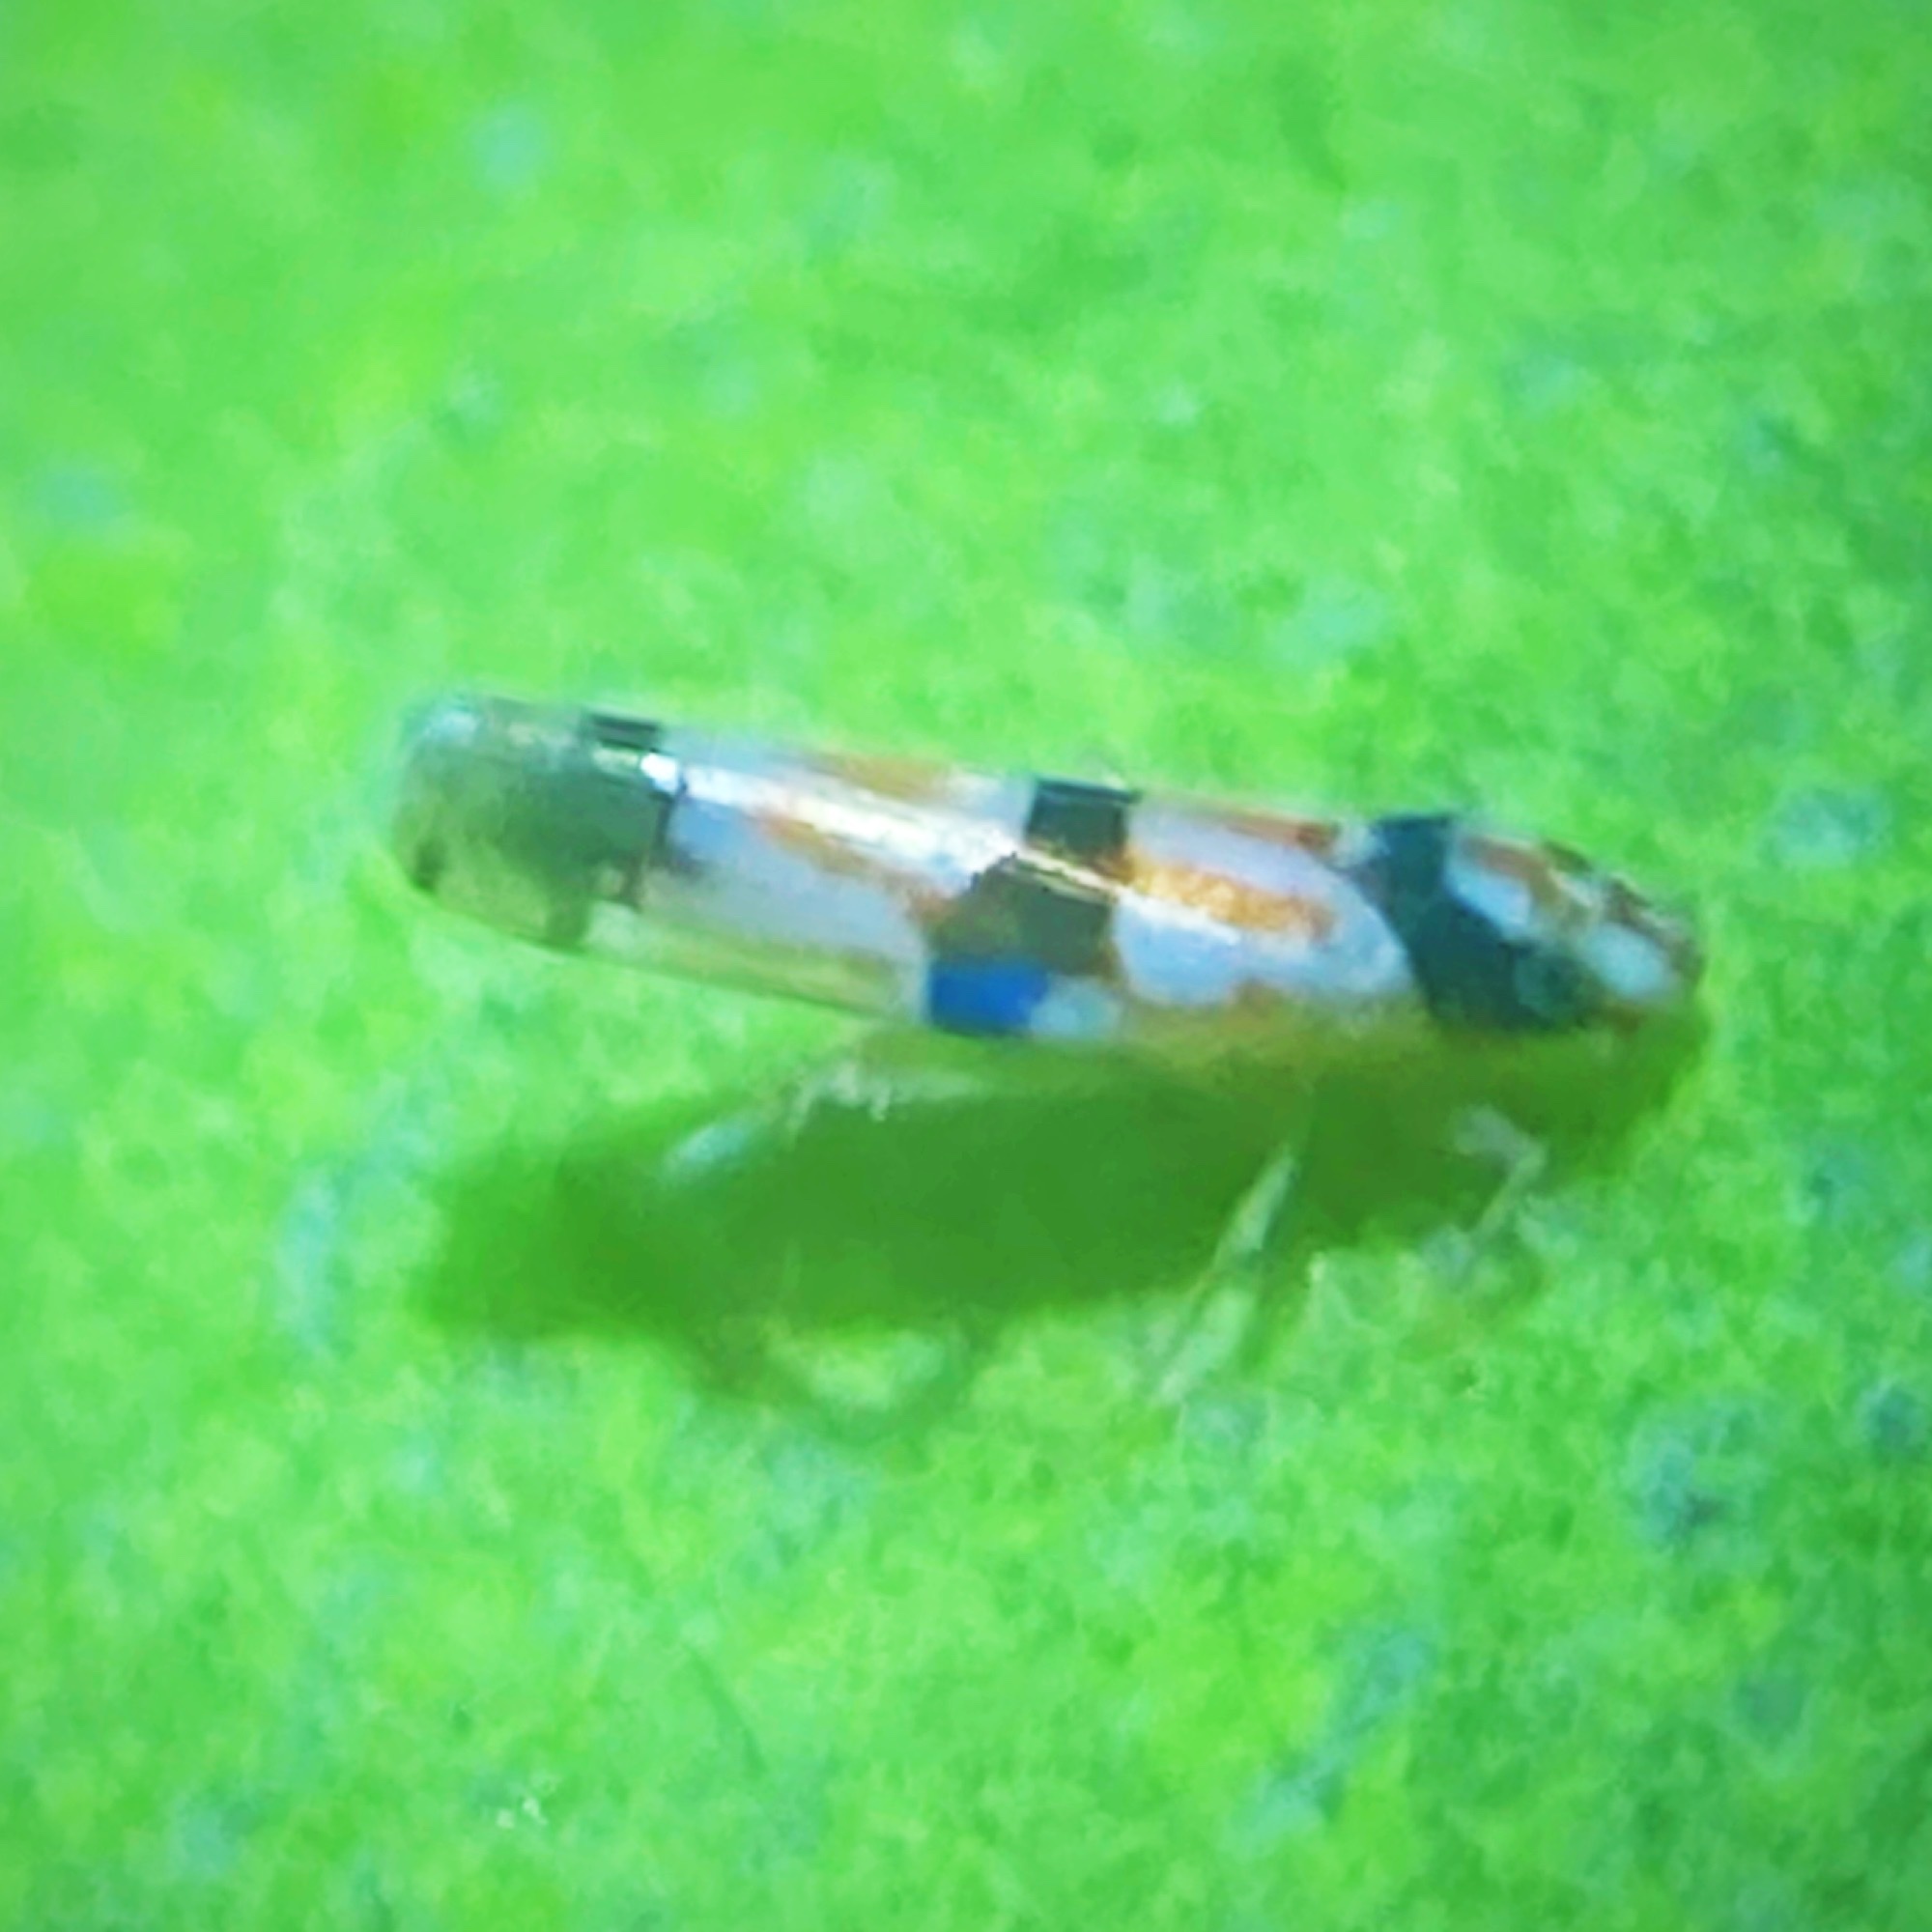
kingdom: Animalia
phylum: Arthropoda
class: Insecta
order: Hemiptera
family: Cicadellidae
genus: Erythroneura
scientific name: Erythroneura calycula
